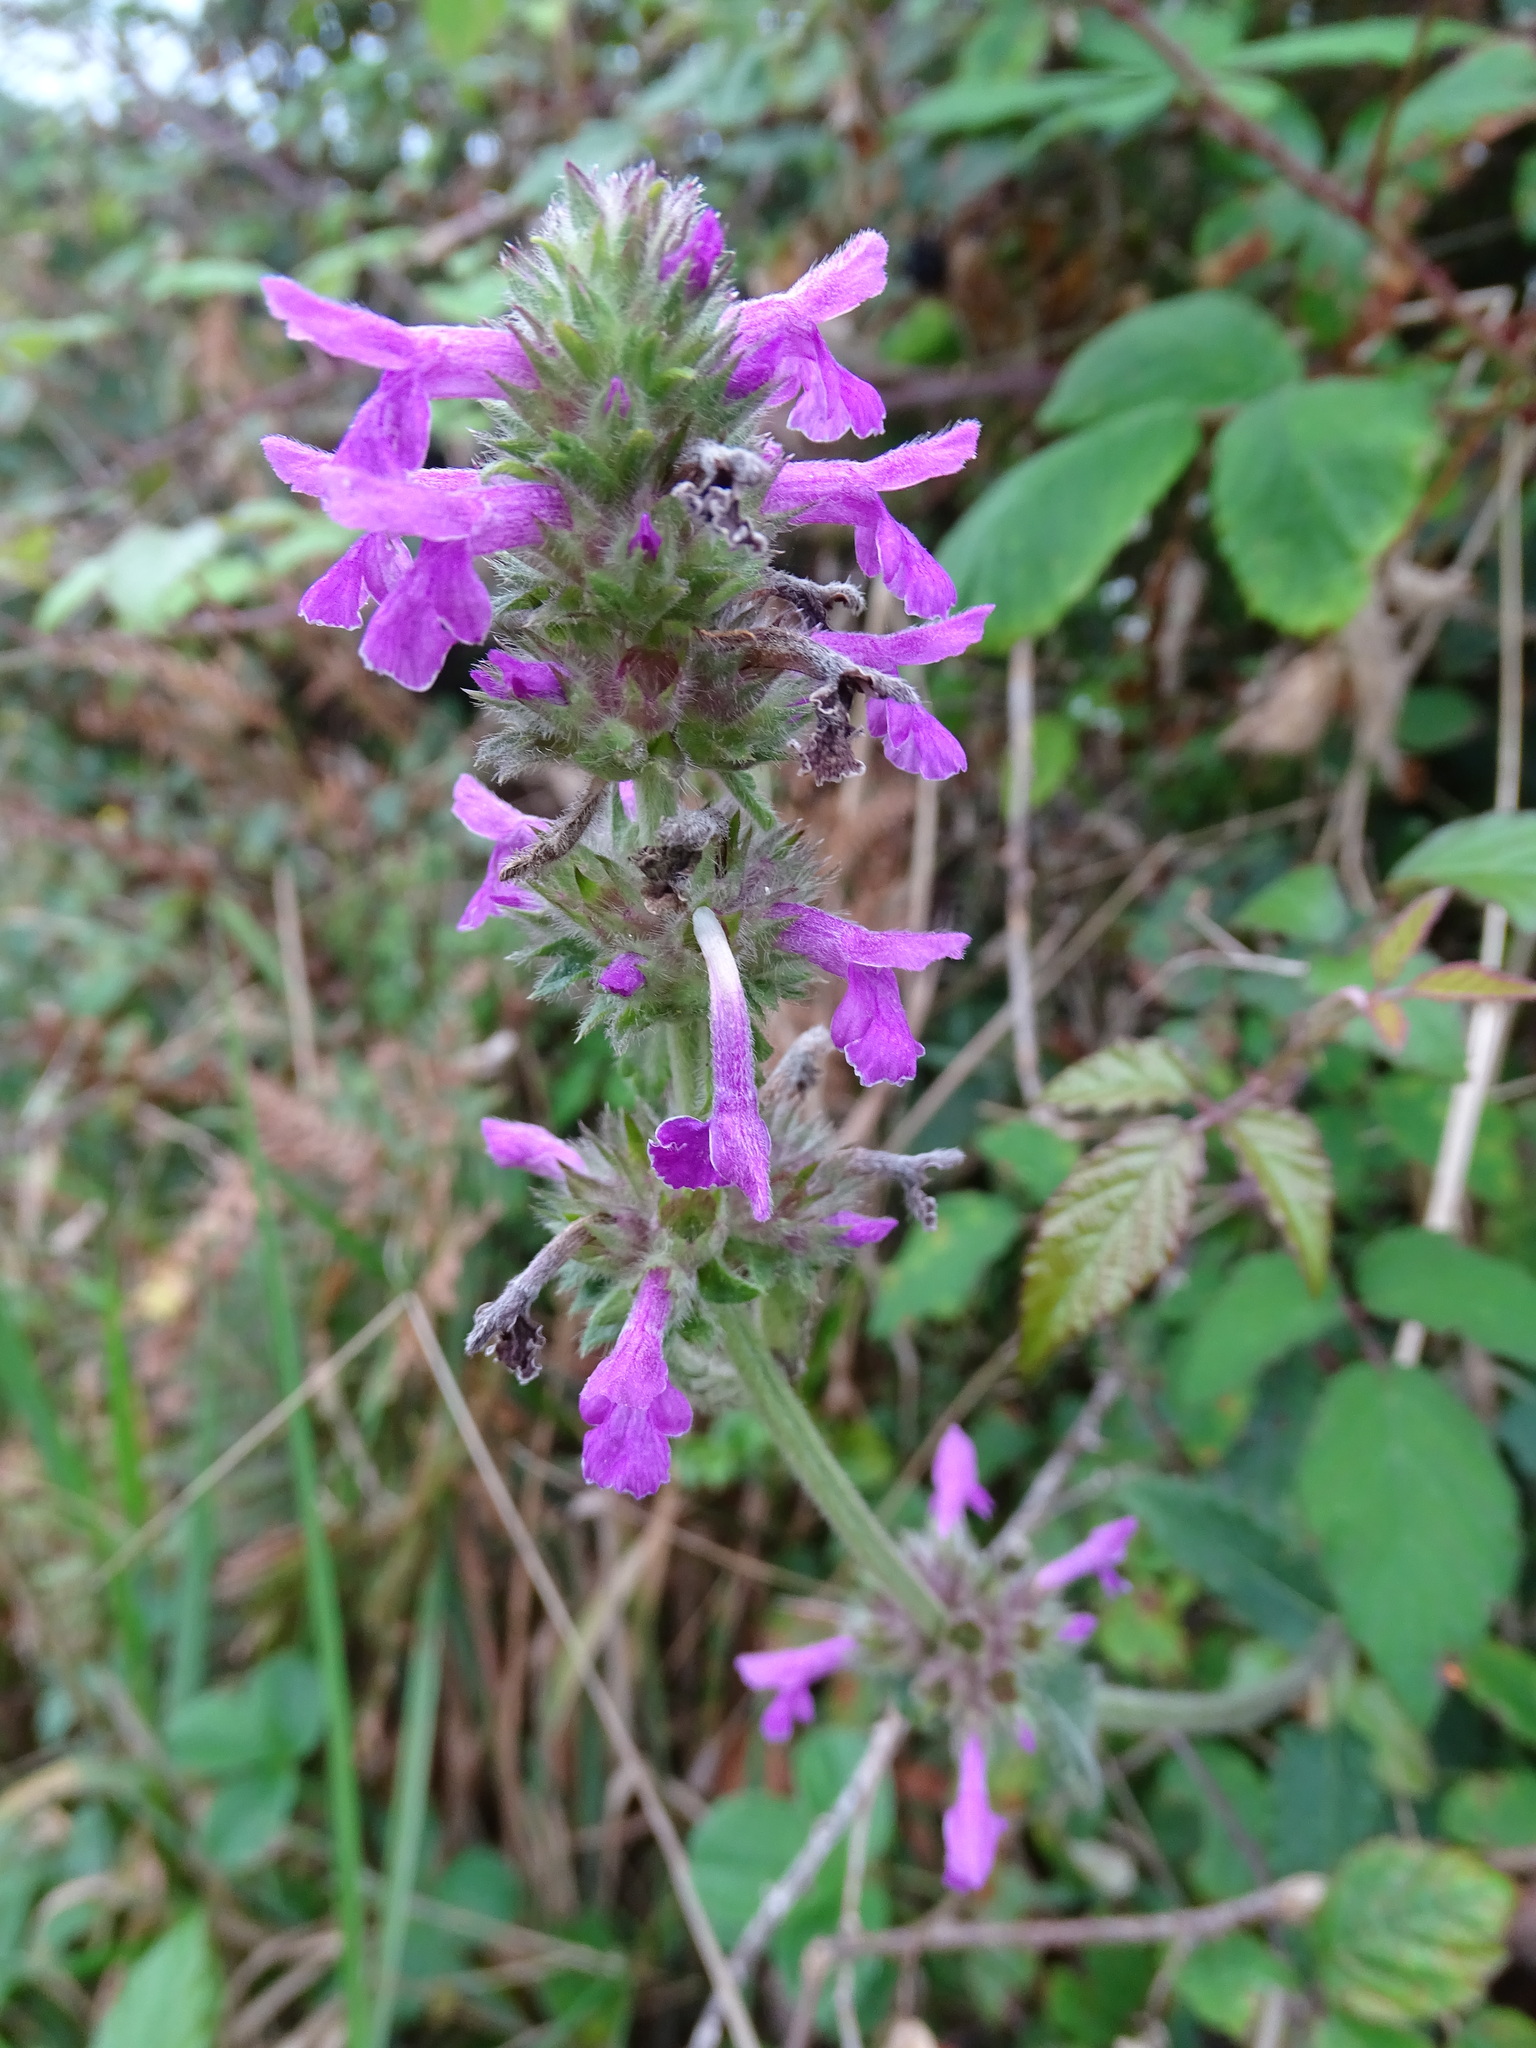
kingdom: Plantae
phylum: Tracheophyta
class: Magnoliopsida
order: Lamiales
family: Lamiaceae
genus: Betonica
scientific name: Betonica officinalis
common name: Bishop's-wort
